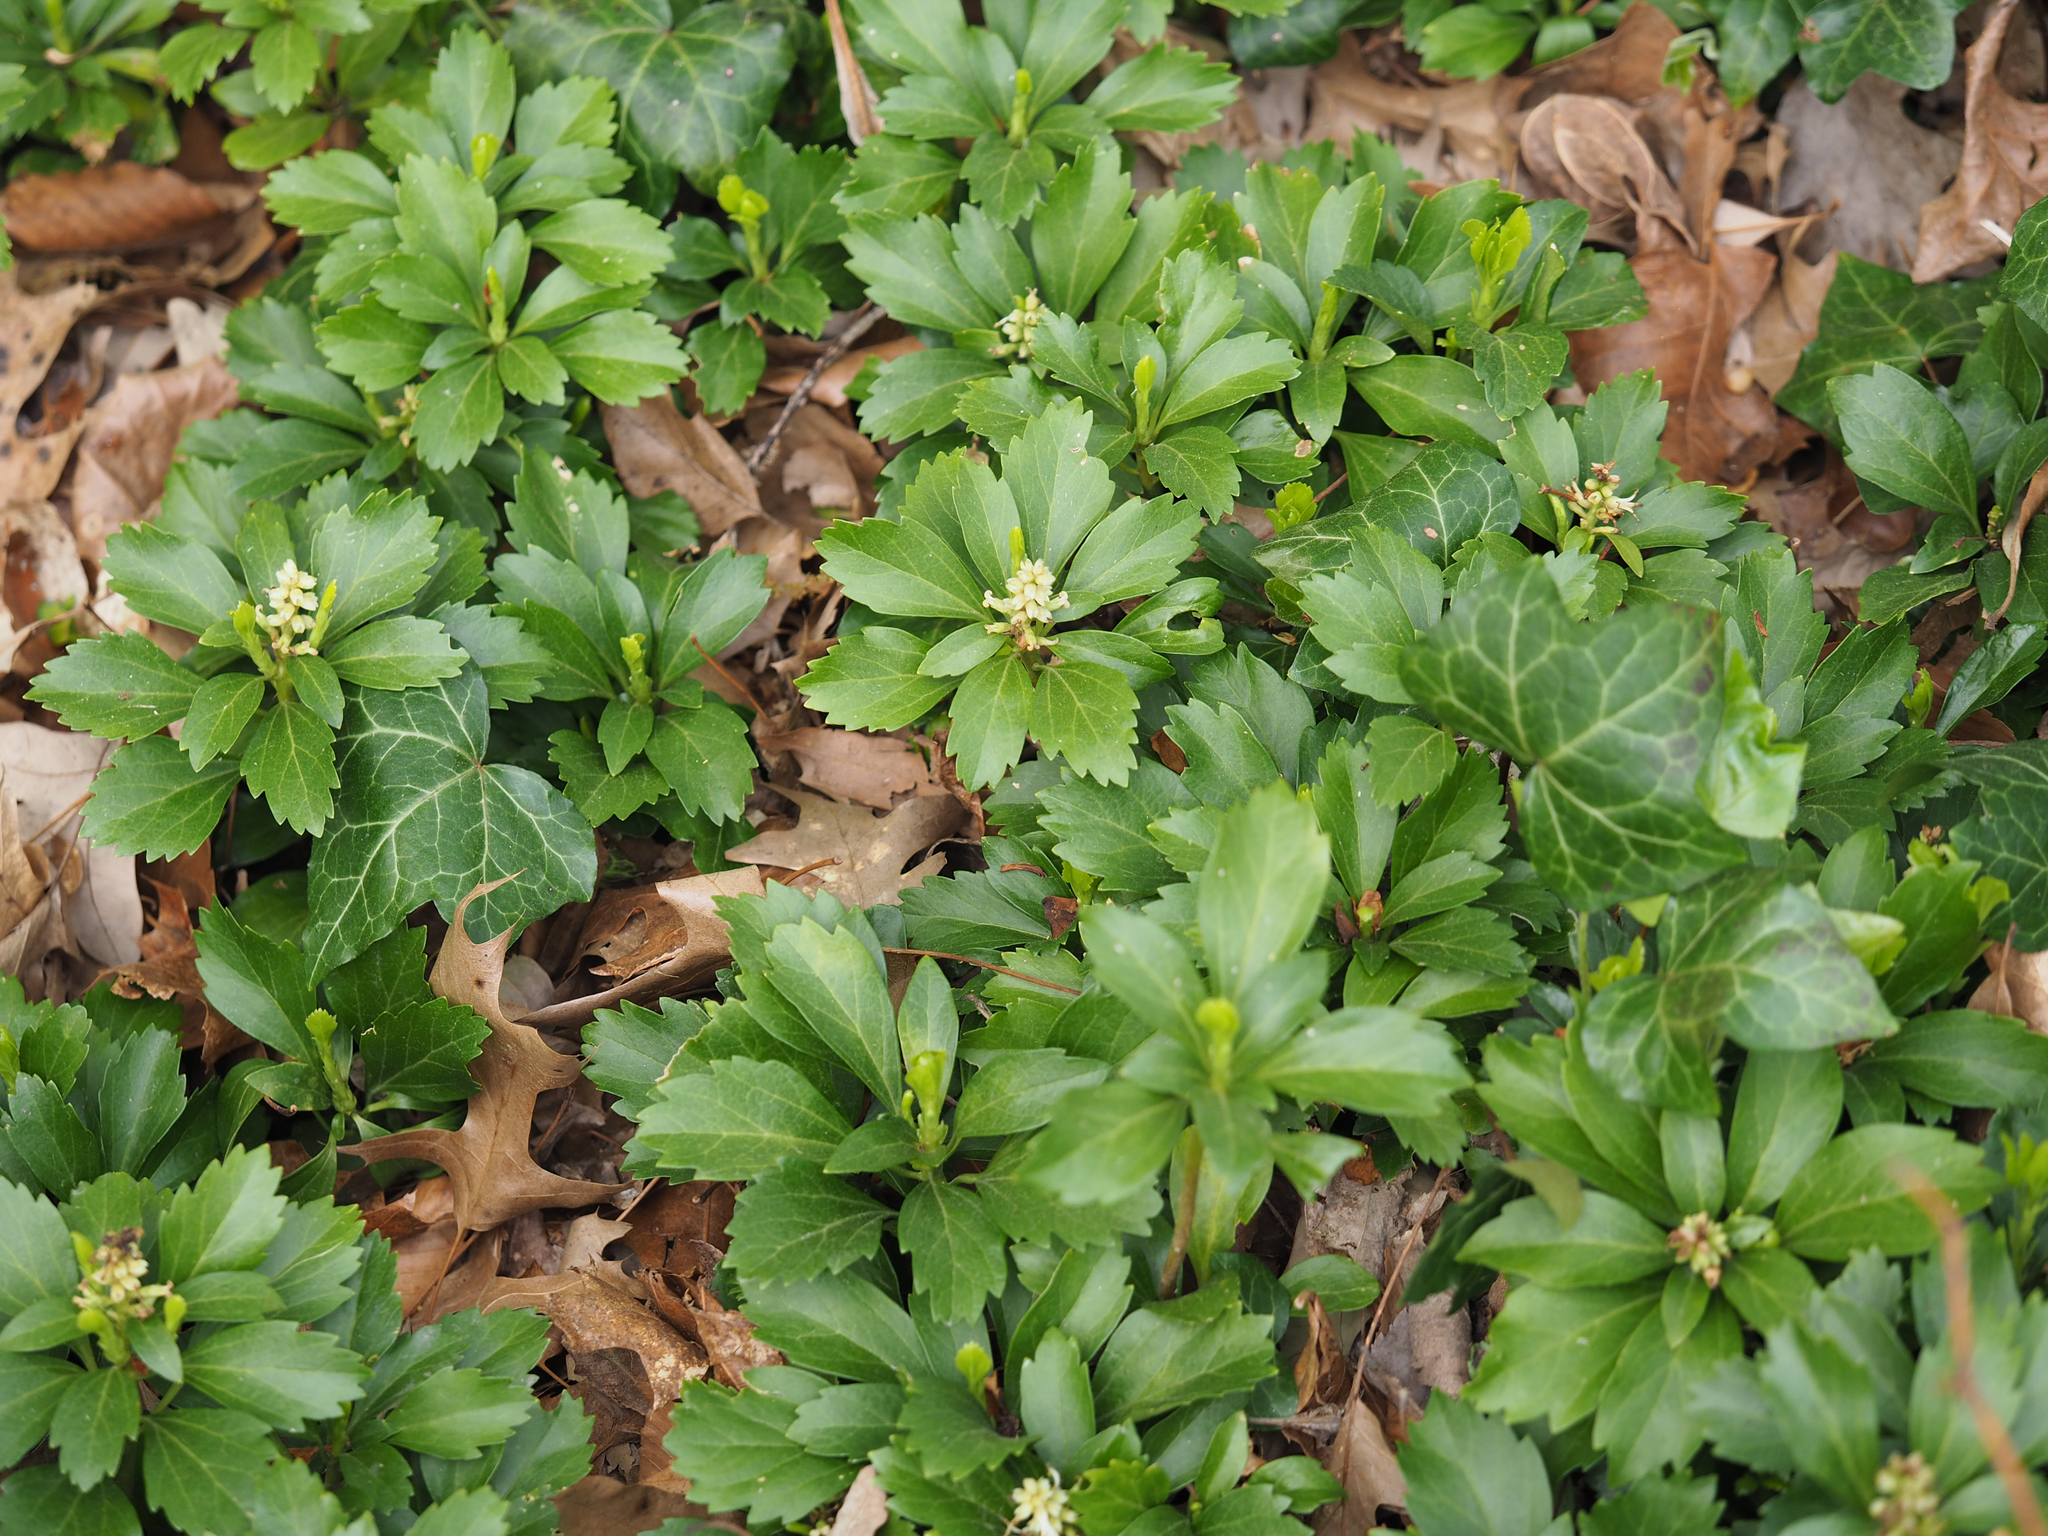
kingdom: Plantae
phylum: Tracheophyta
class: Magnoliopsida
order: Buxales
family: Buxaceae
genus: Pachysandra
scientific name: Pachysandra terminalis
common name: Japanese pachysandra
